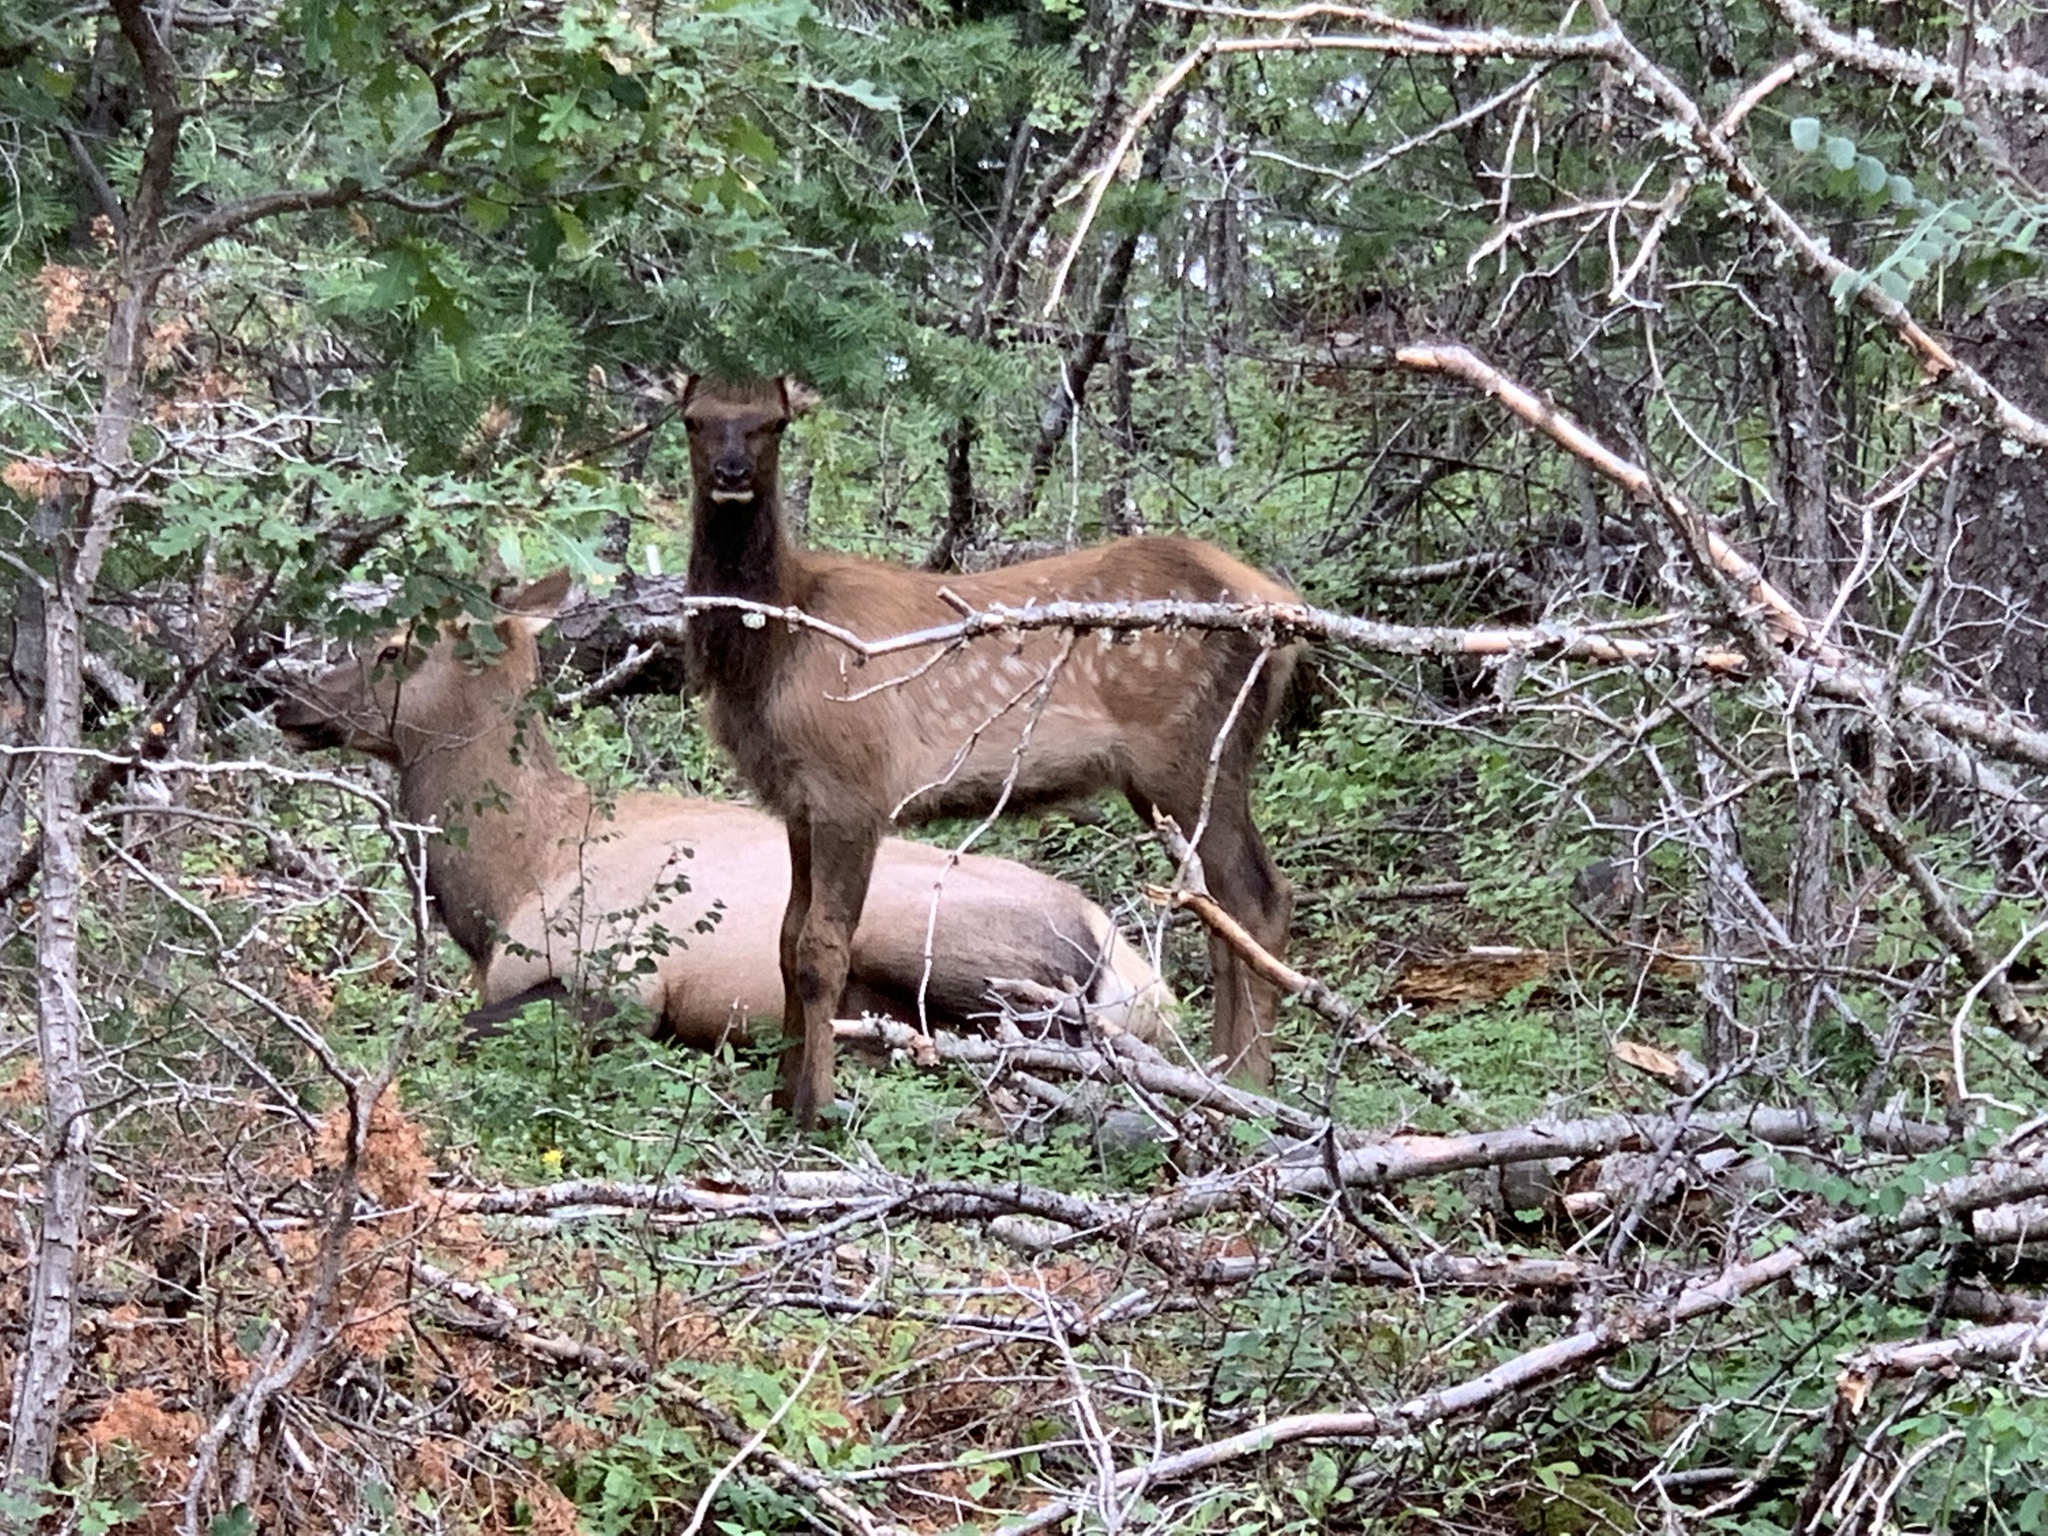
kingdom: Animalia
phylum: Chordata
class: Mammalia
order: Artiodactyla
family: Cervidae
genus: Cervus
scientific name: Cervus elaphus
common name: Red deer
